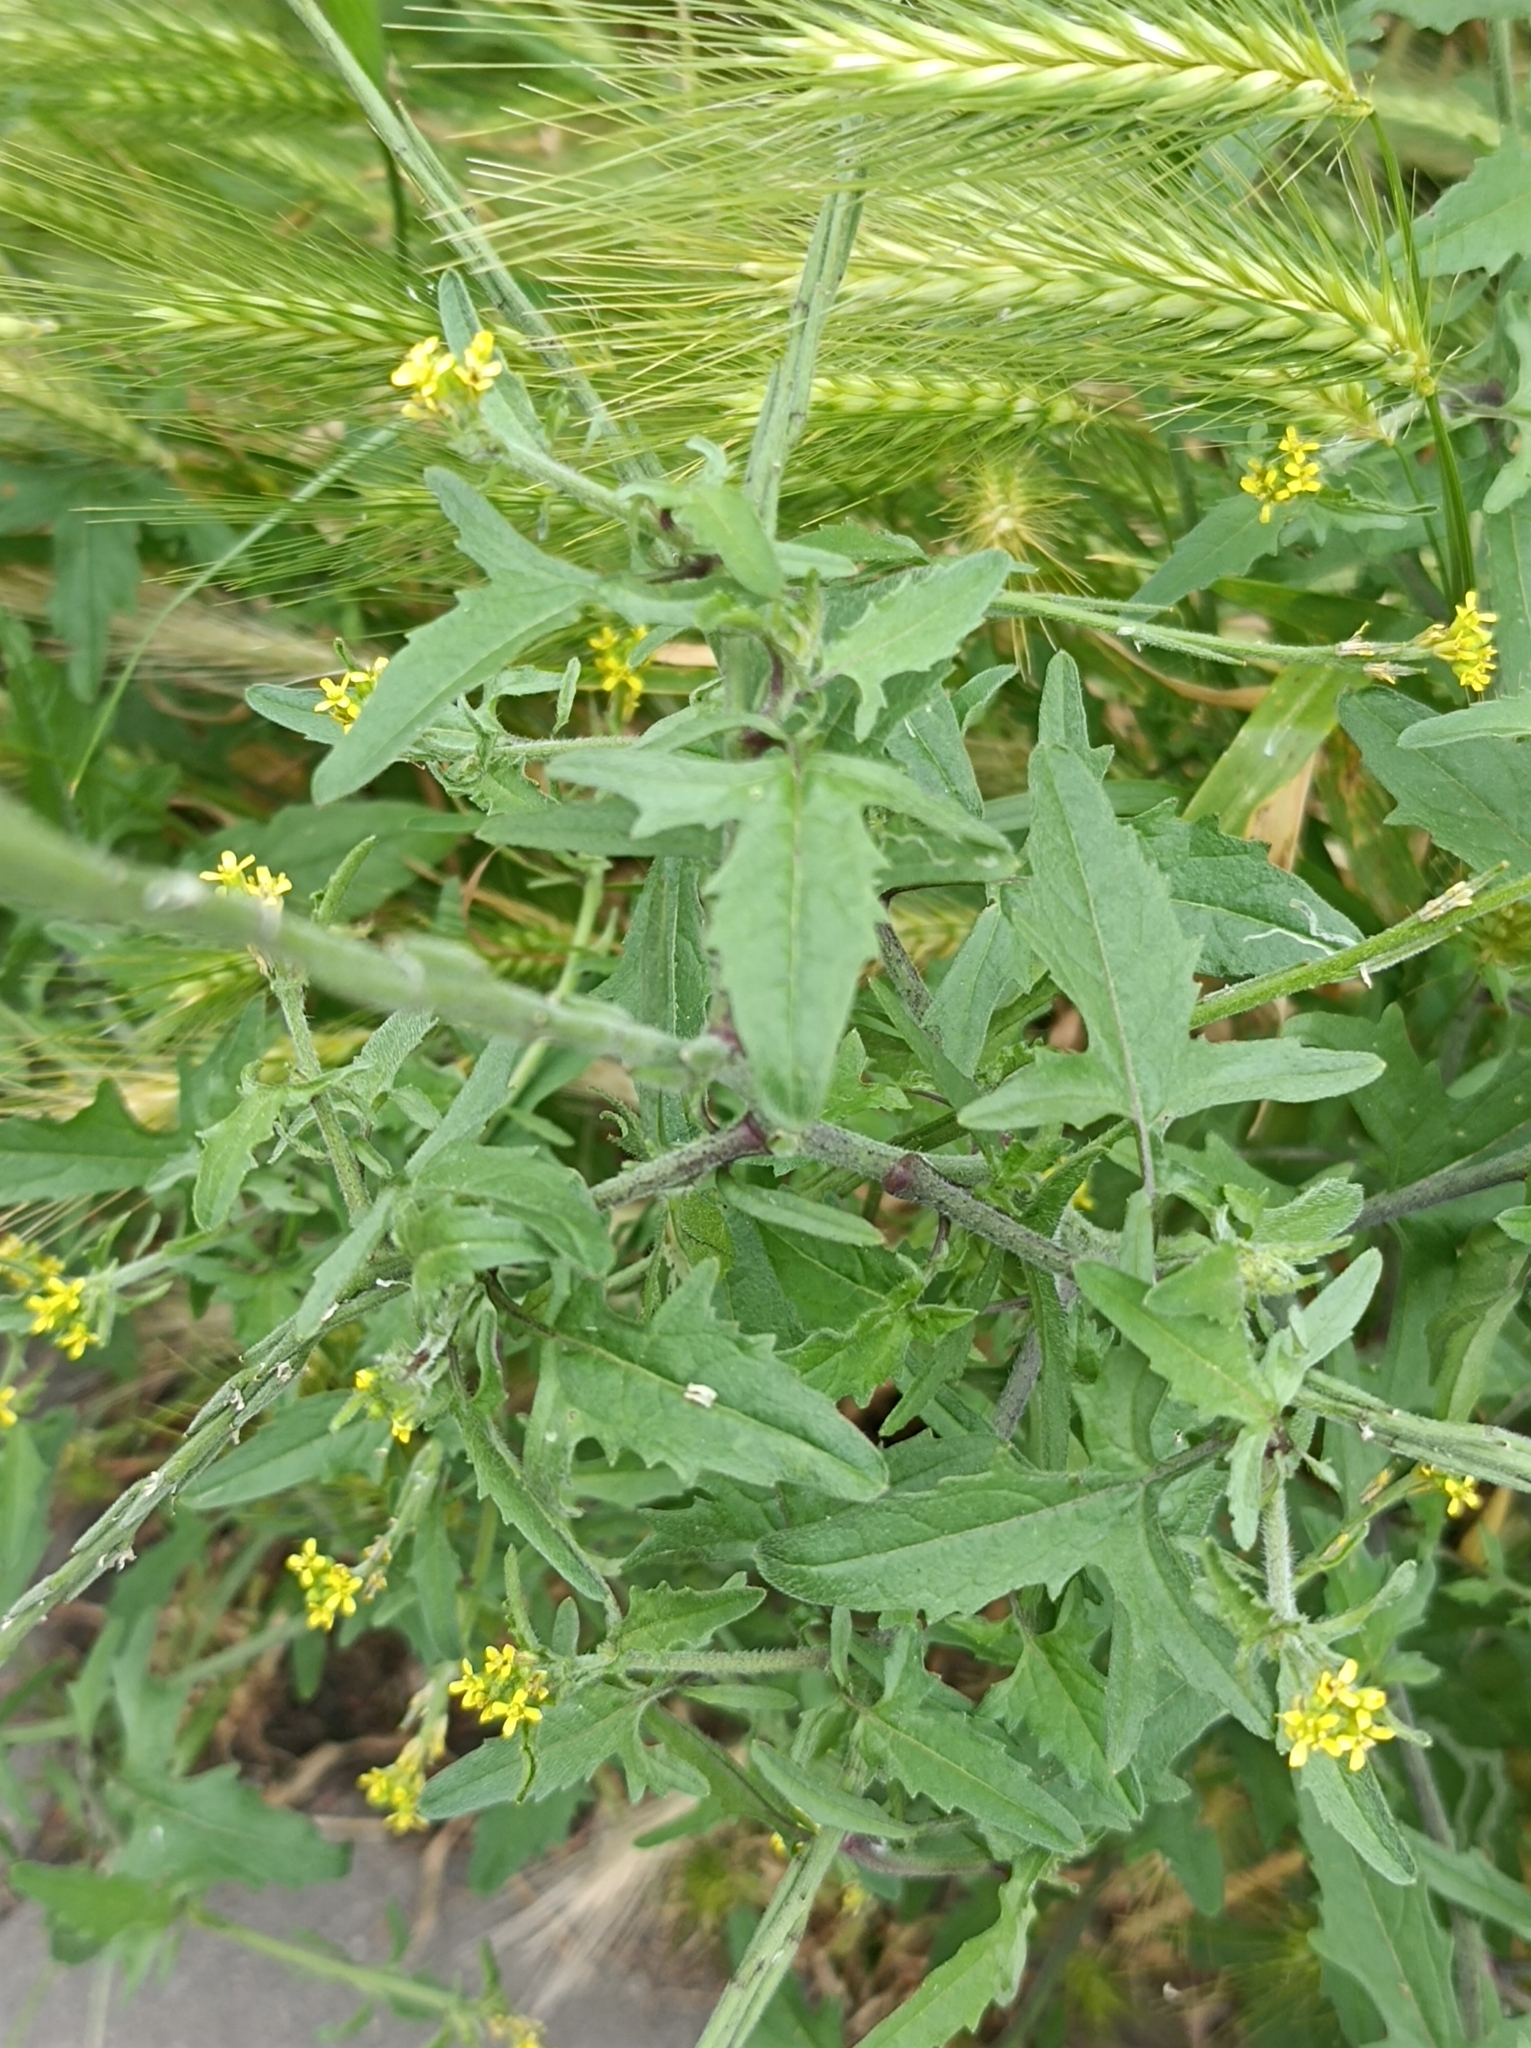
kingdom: Plantae
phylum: Tracheophyta
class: Magnoliopsida
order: Brassicales
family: Brassicaceae
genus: Sisymbrium
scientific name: Sisymbrium officinale
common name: Hedge mustard
